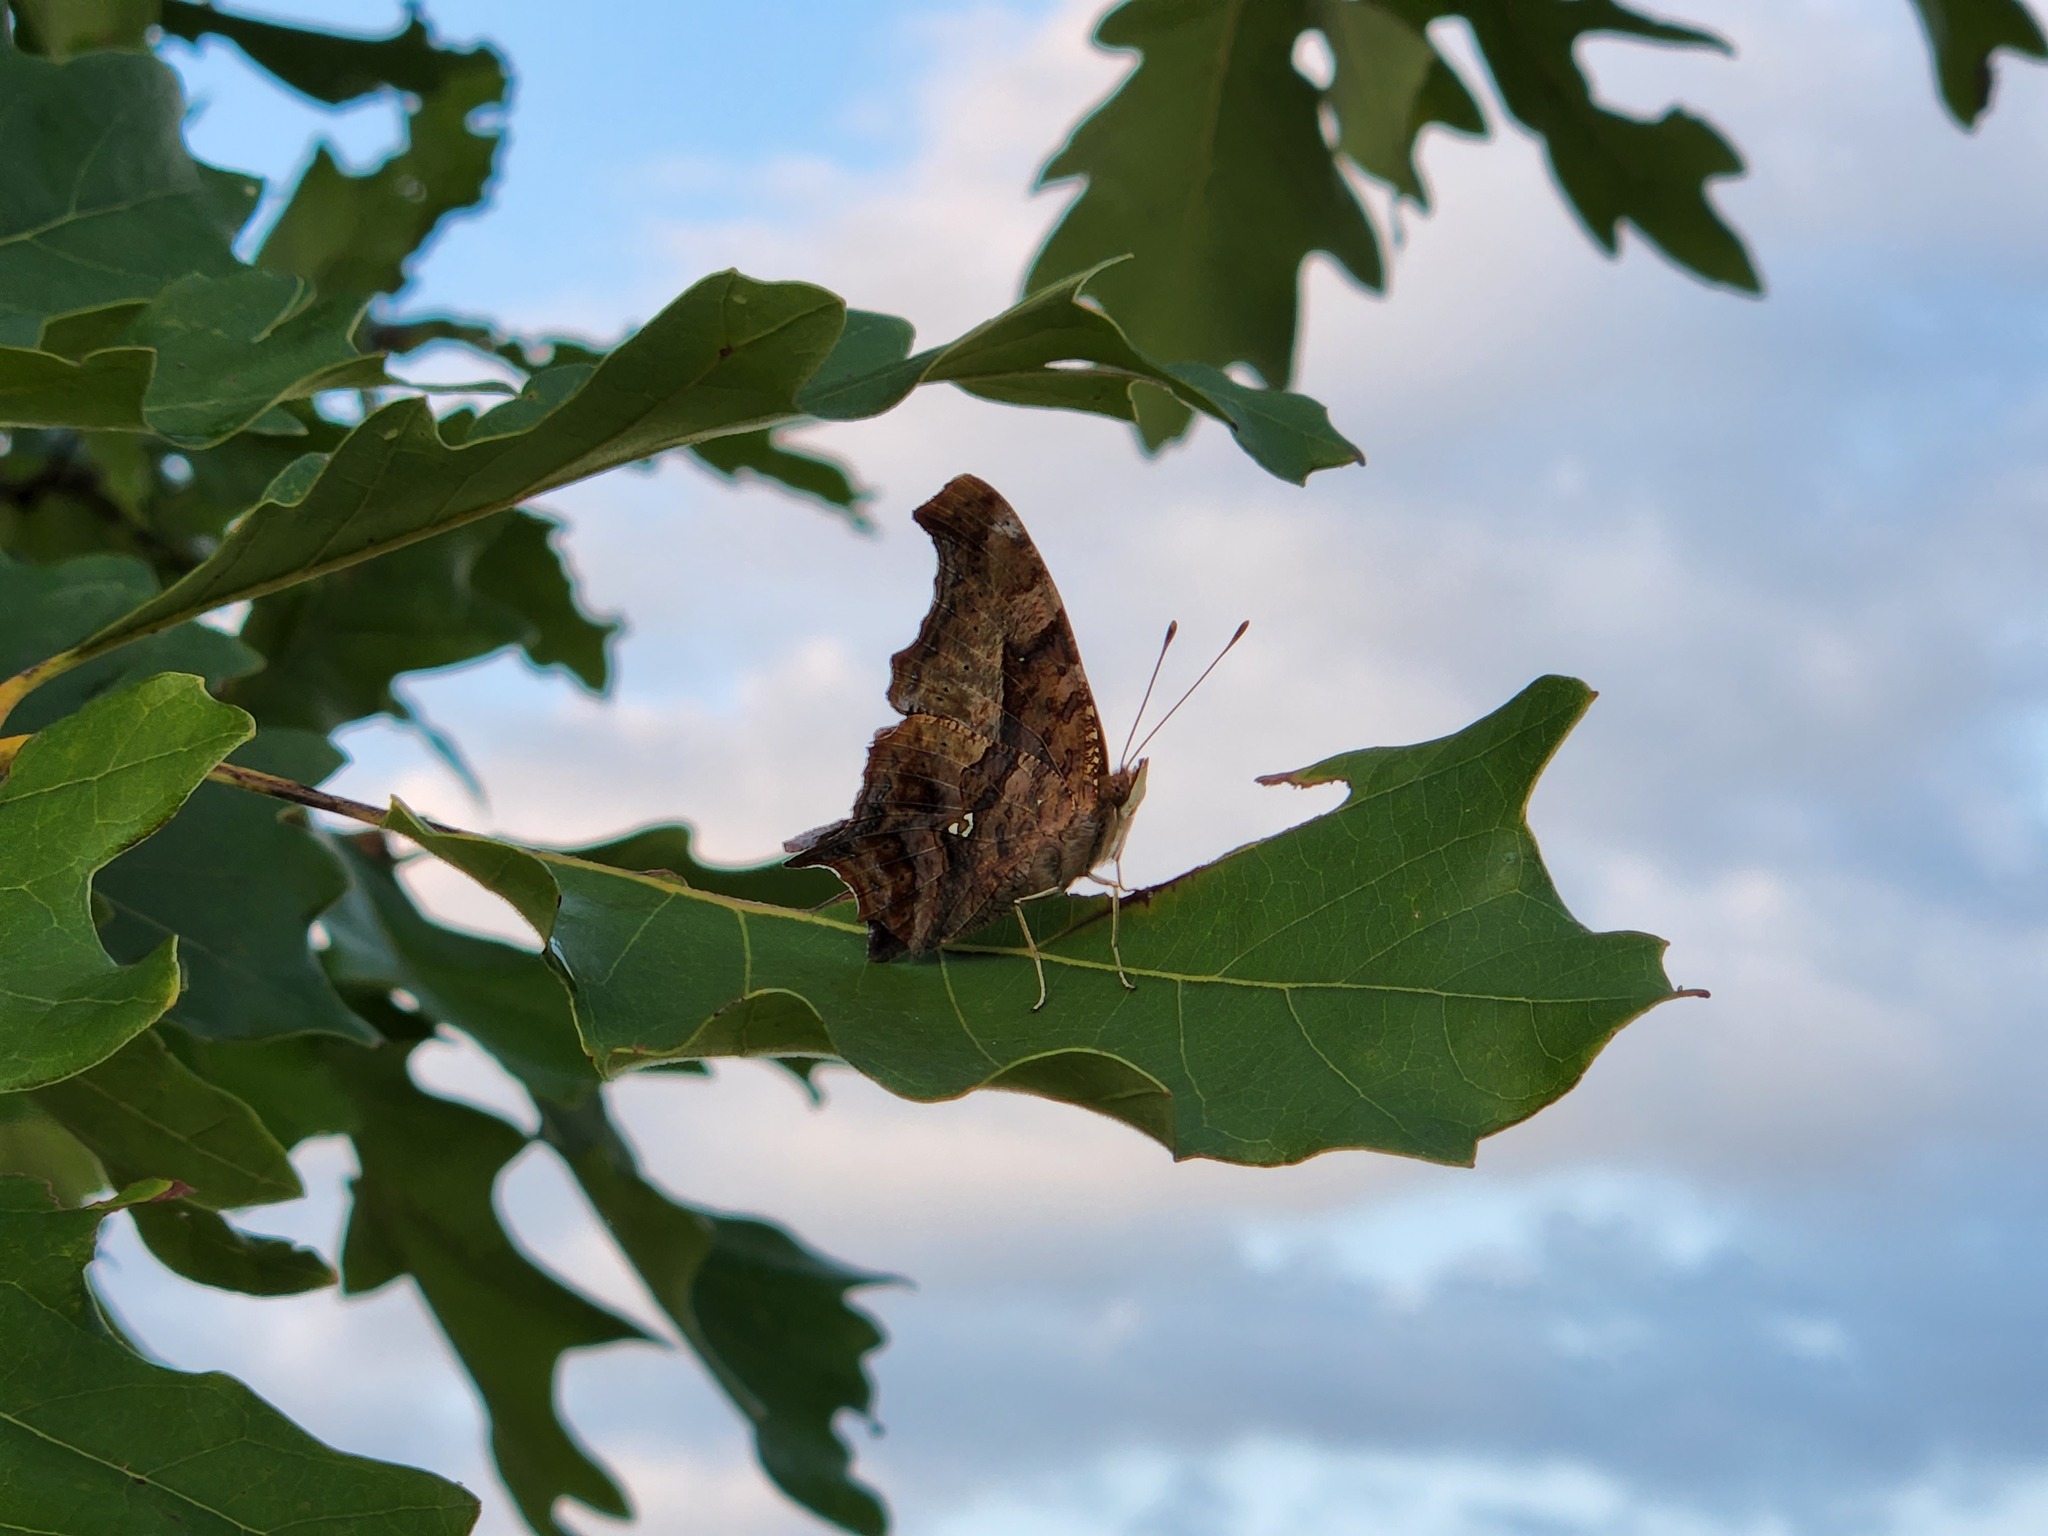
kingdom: Animalia
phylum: Arthropoda
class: Insecta
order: Lepidoptera
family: Nymphalidae
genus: Polygonia
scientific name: Polygonia interrogationis
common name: Question mark
